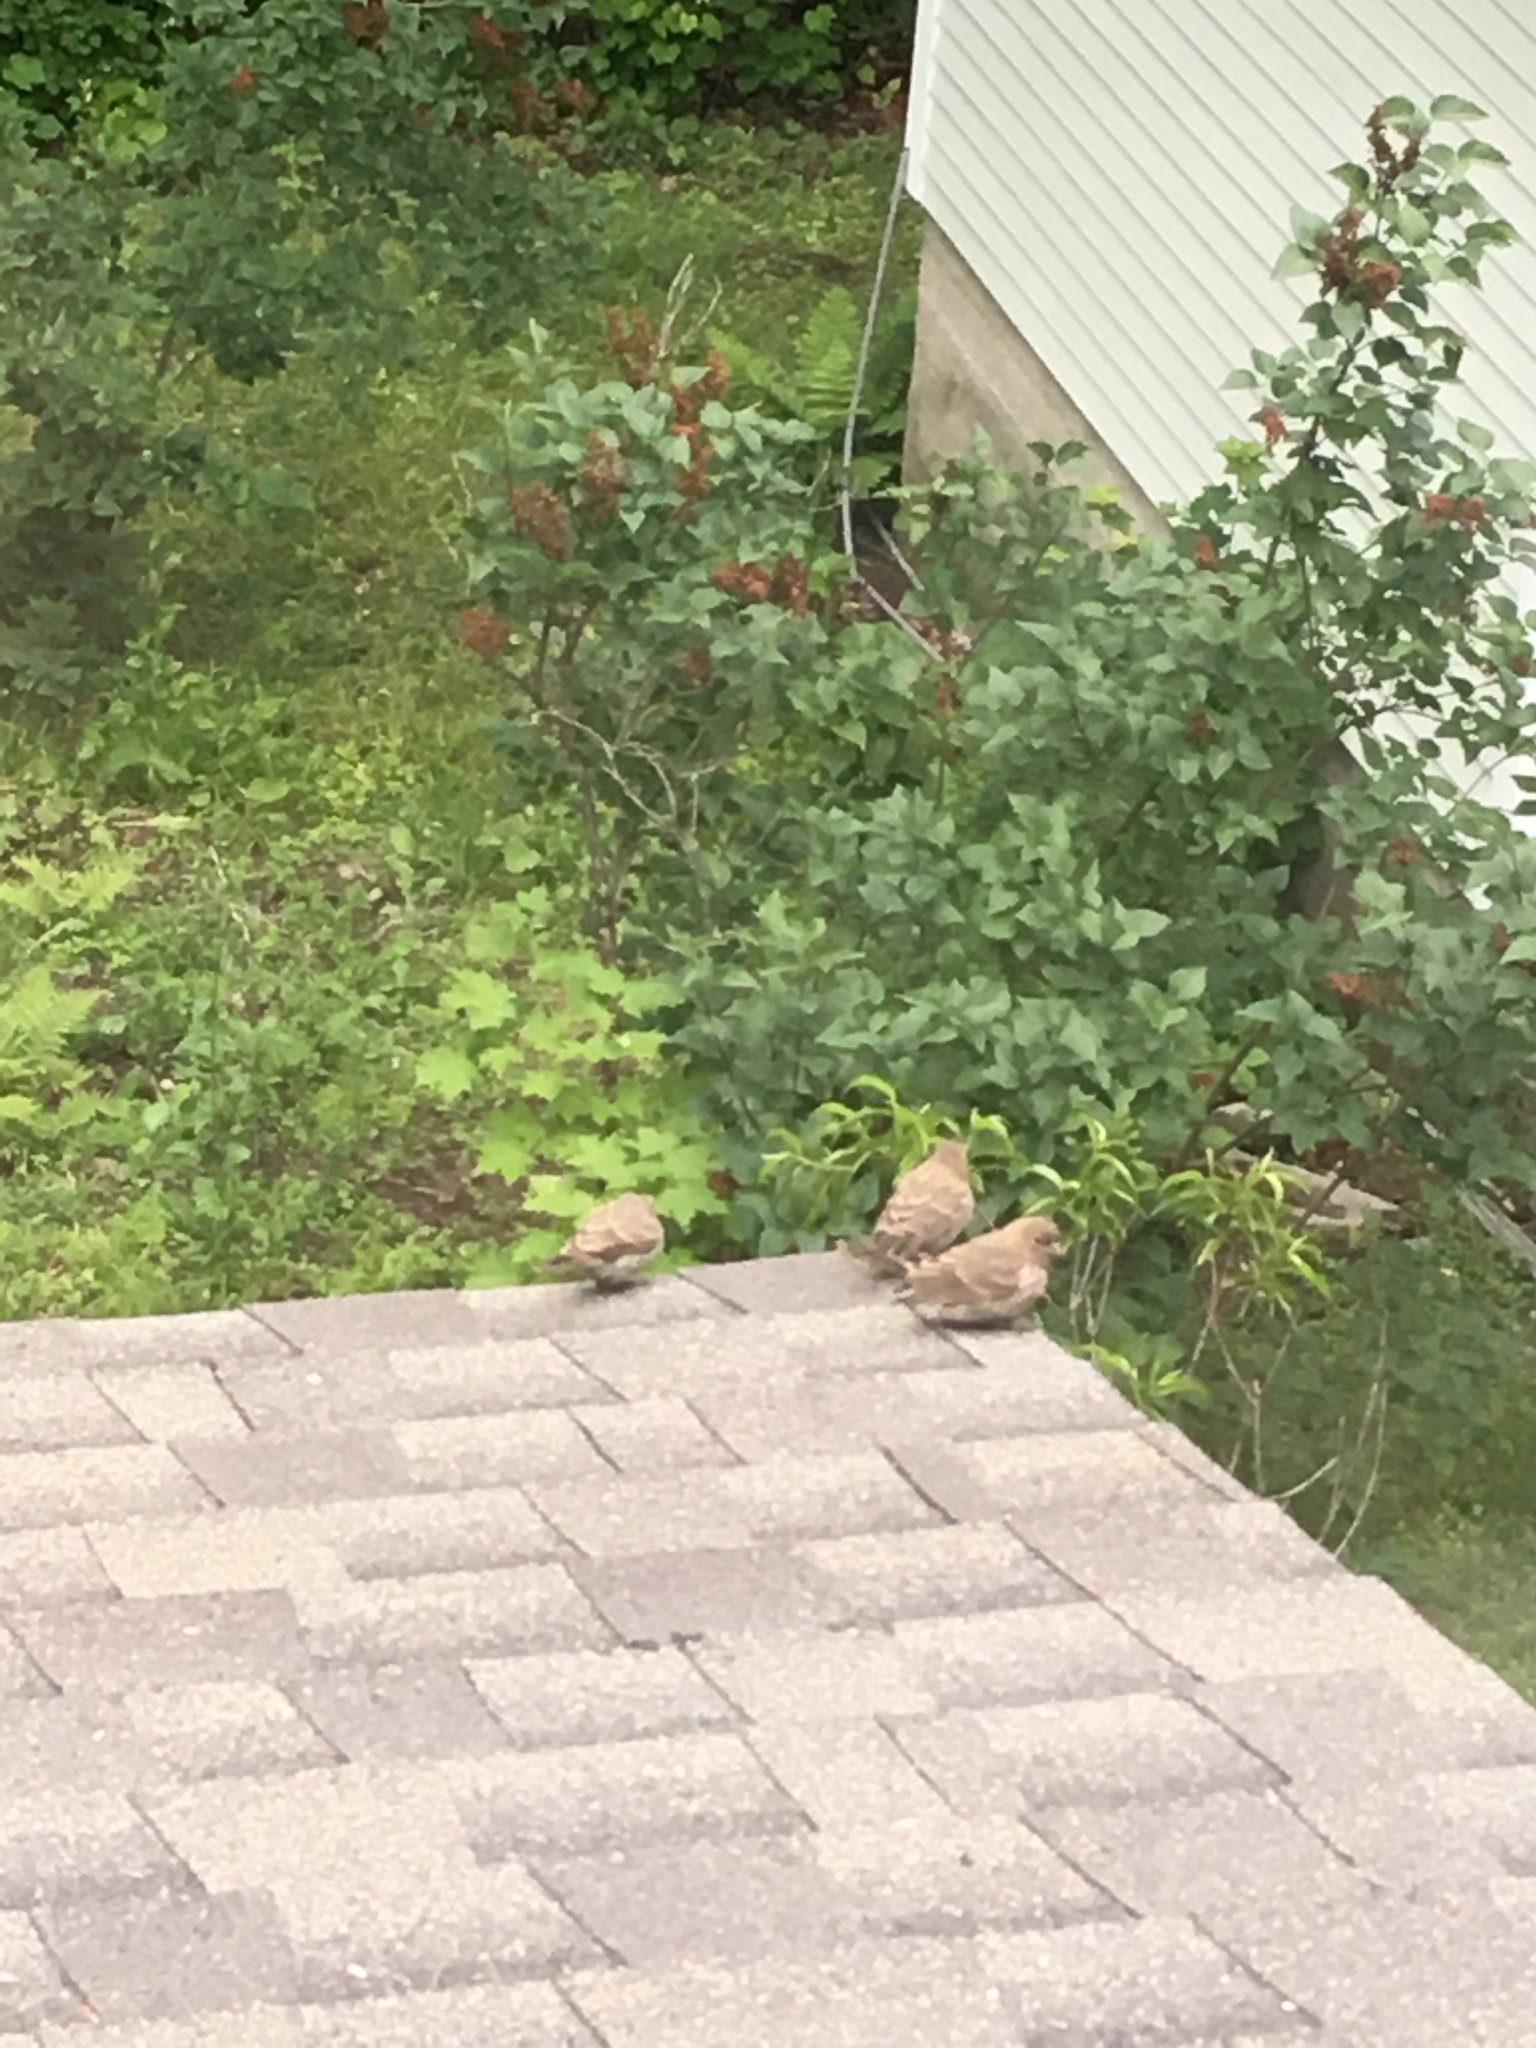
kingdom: Animalia
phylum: Chordata
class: Aves
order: Passeriformes
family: Fringillidae
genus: Haemorhous
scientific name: Haemorhous mexicanus
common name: House finch
